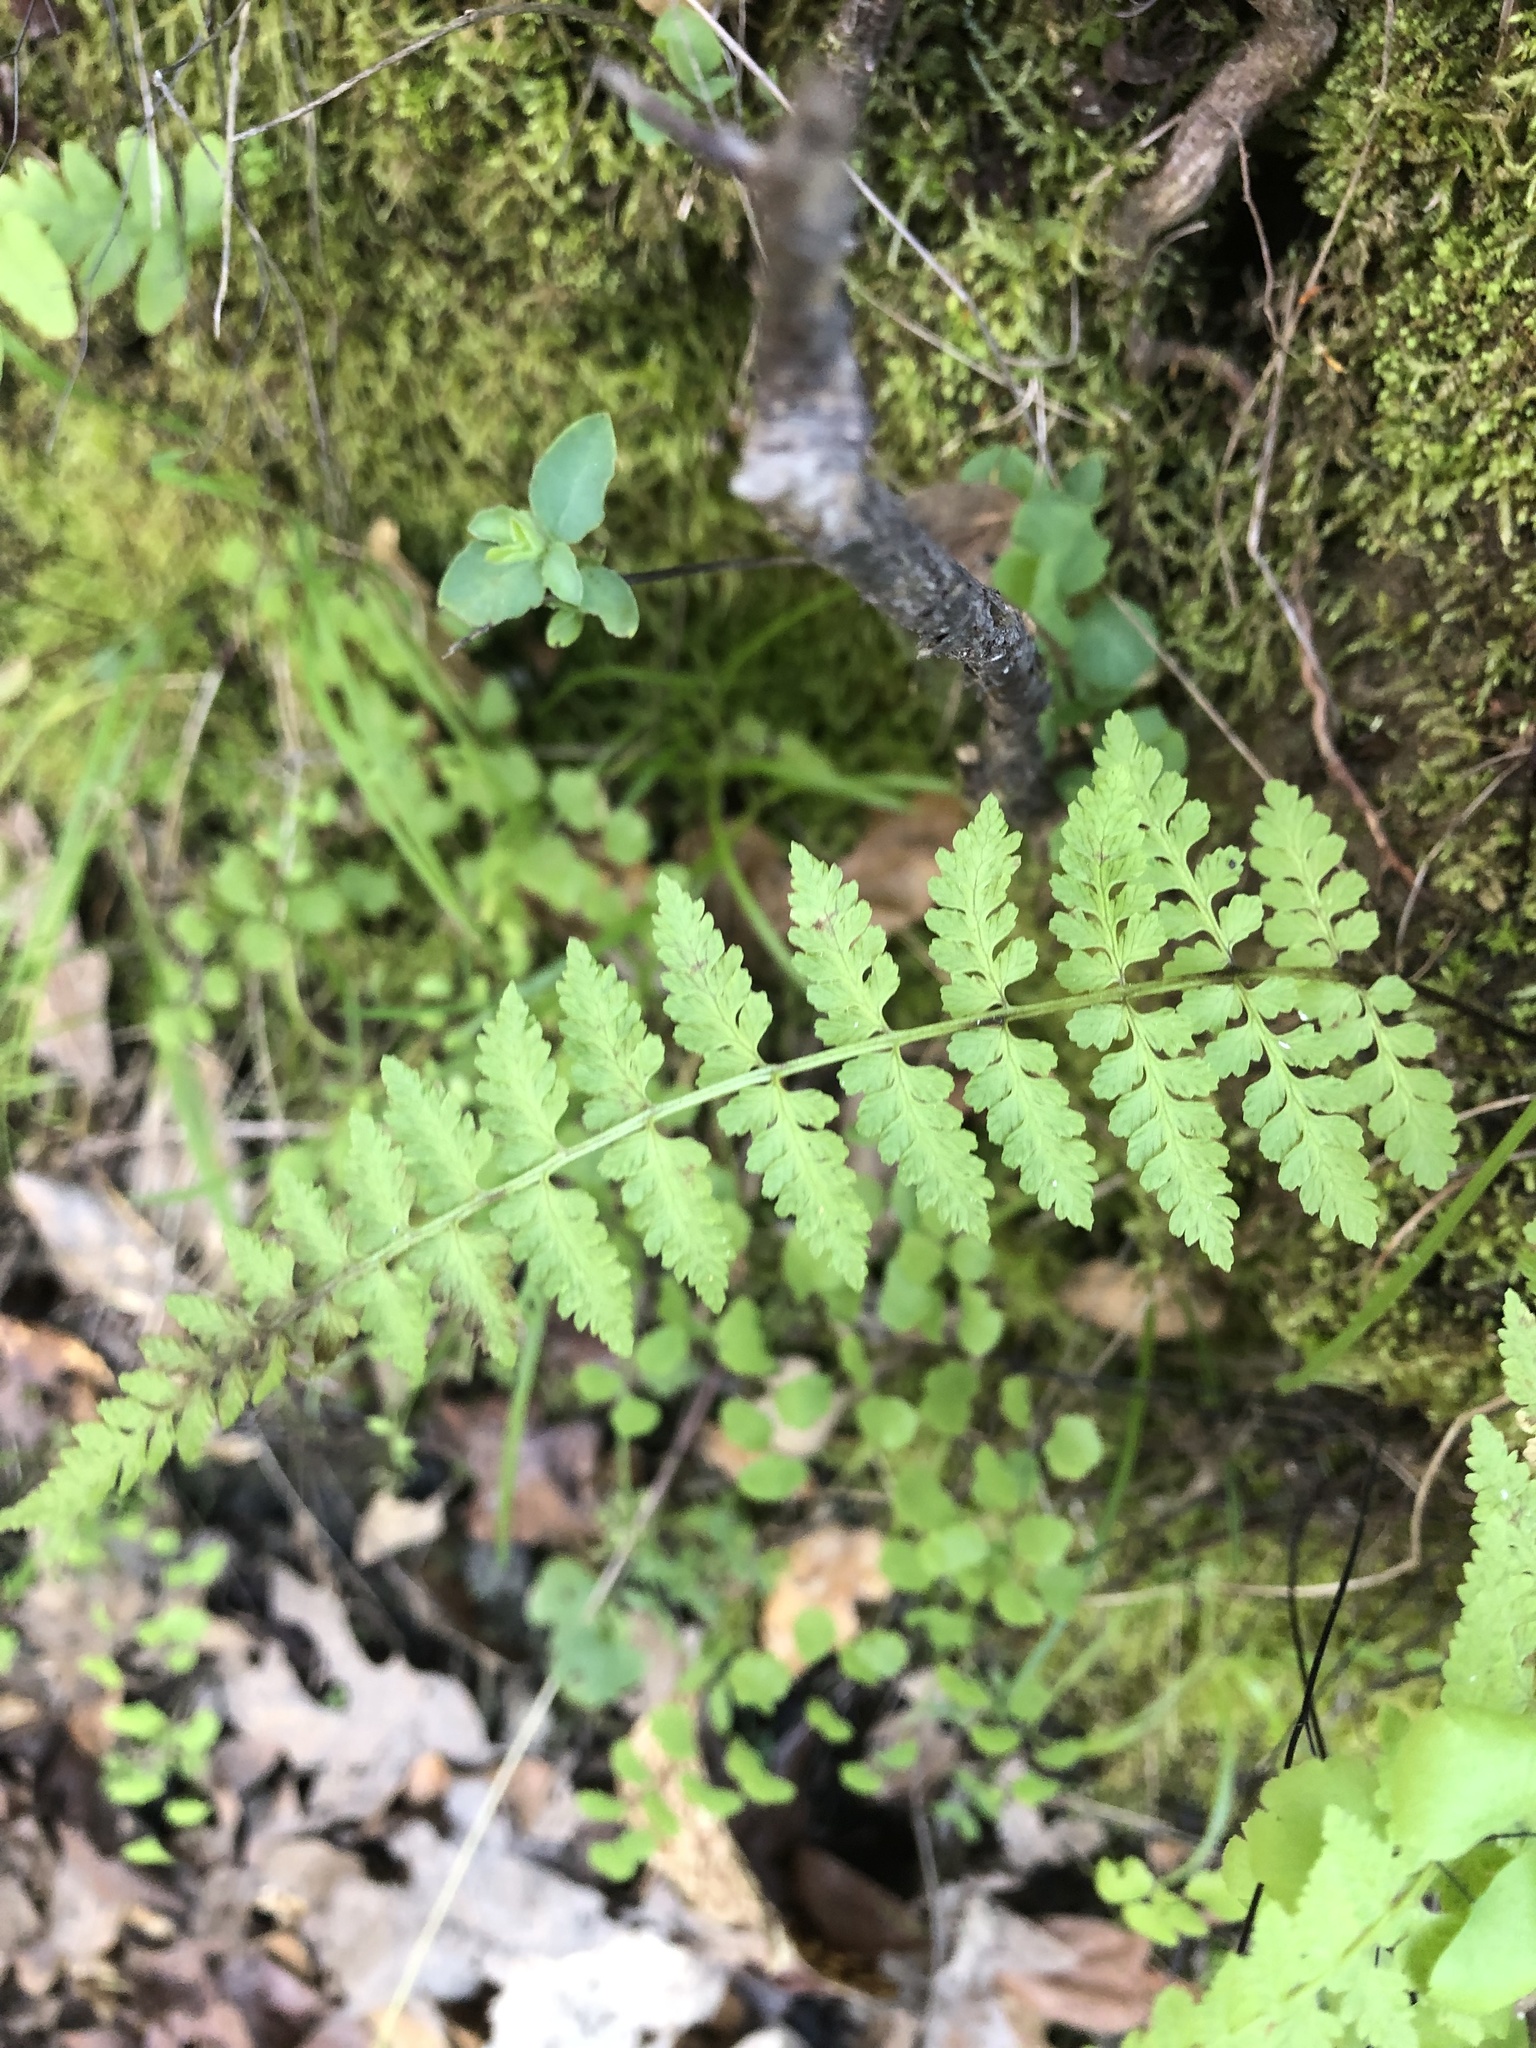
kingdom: Plantae
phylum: Tracheophyta
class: Polypodiopsida
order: Polypodiales
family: Cystopteridaceae
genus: Cystopteris
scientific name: Cystopteris fragilis
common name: Brittle bladder fern
